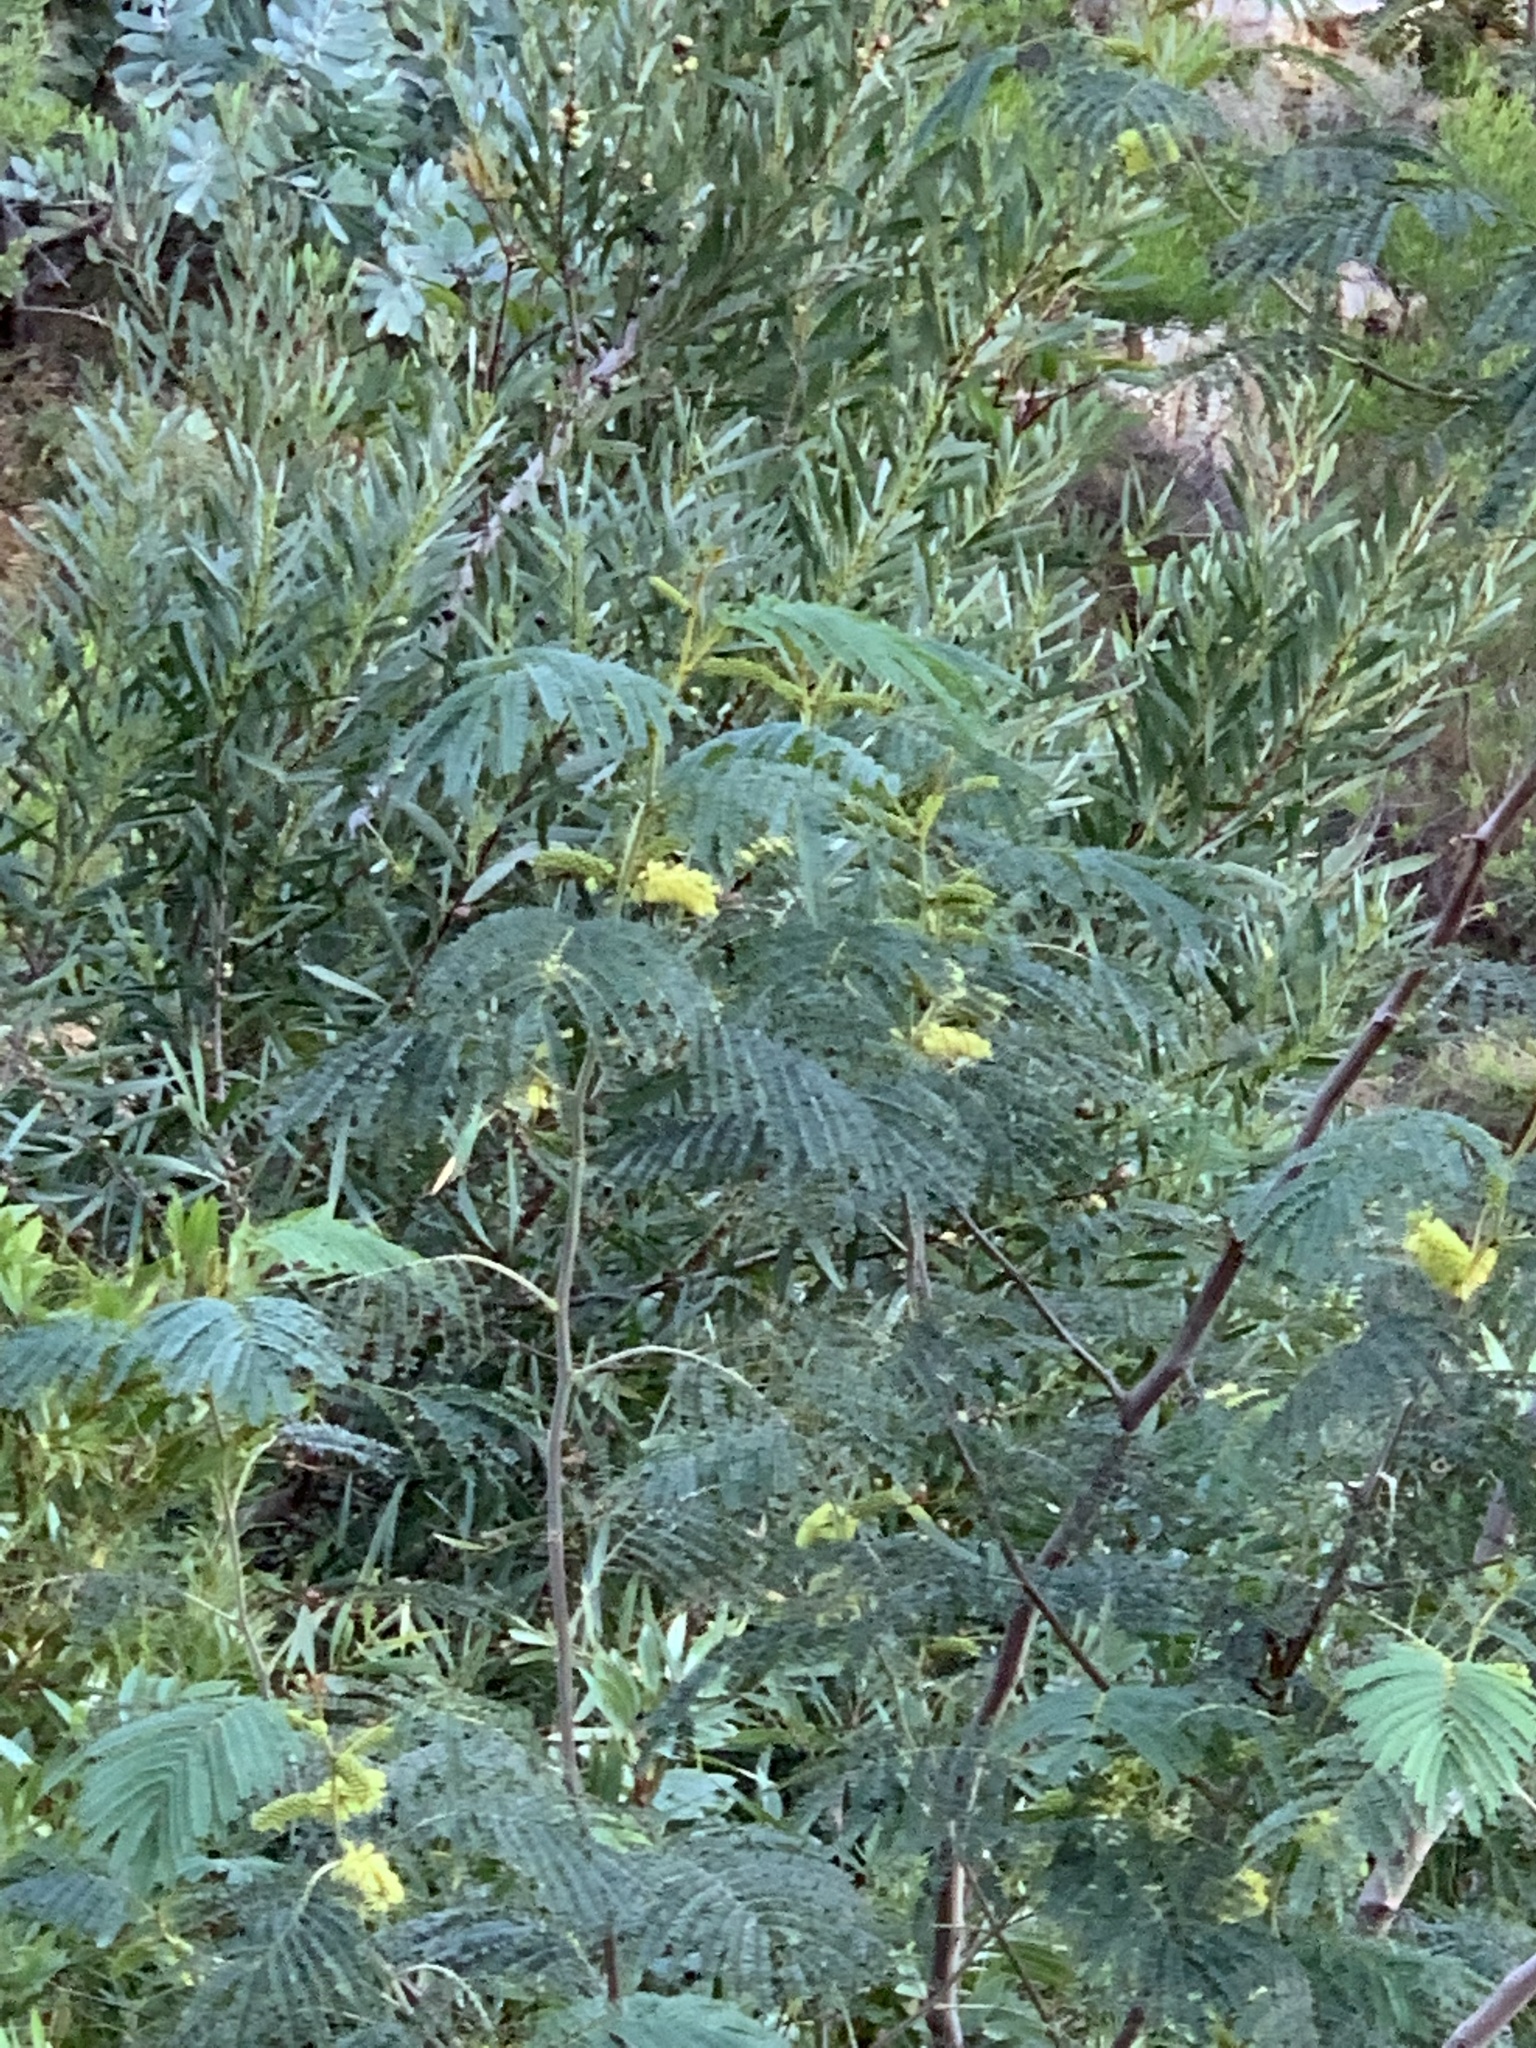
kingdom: Plantae
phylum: Tracheophyta
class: Magnoliopsida
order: Fabales
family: Fabaceae
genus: Paraserianthes
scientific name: Paraserianthes lophantha
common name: Plume albizia
